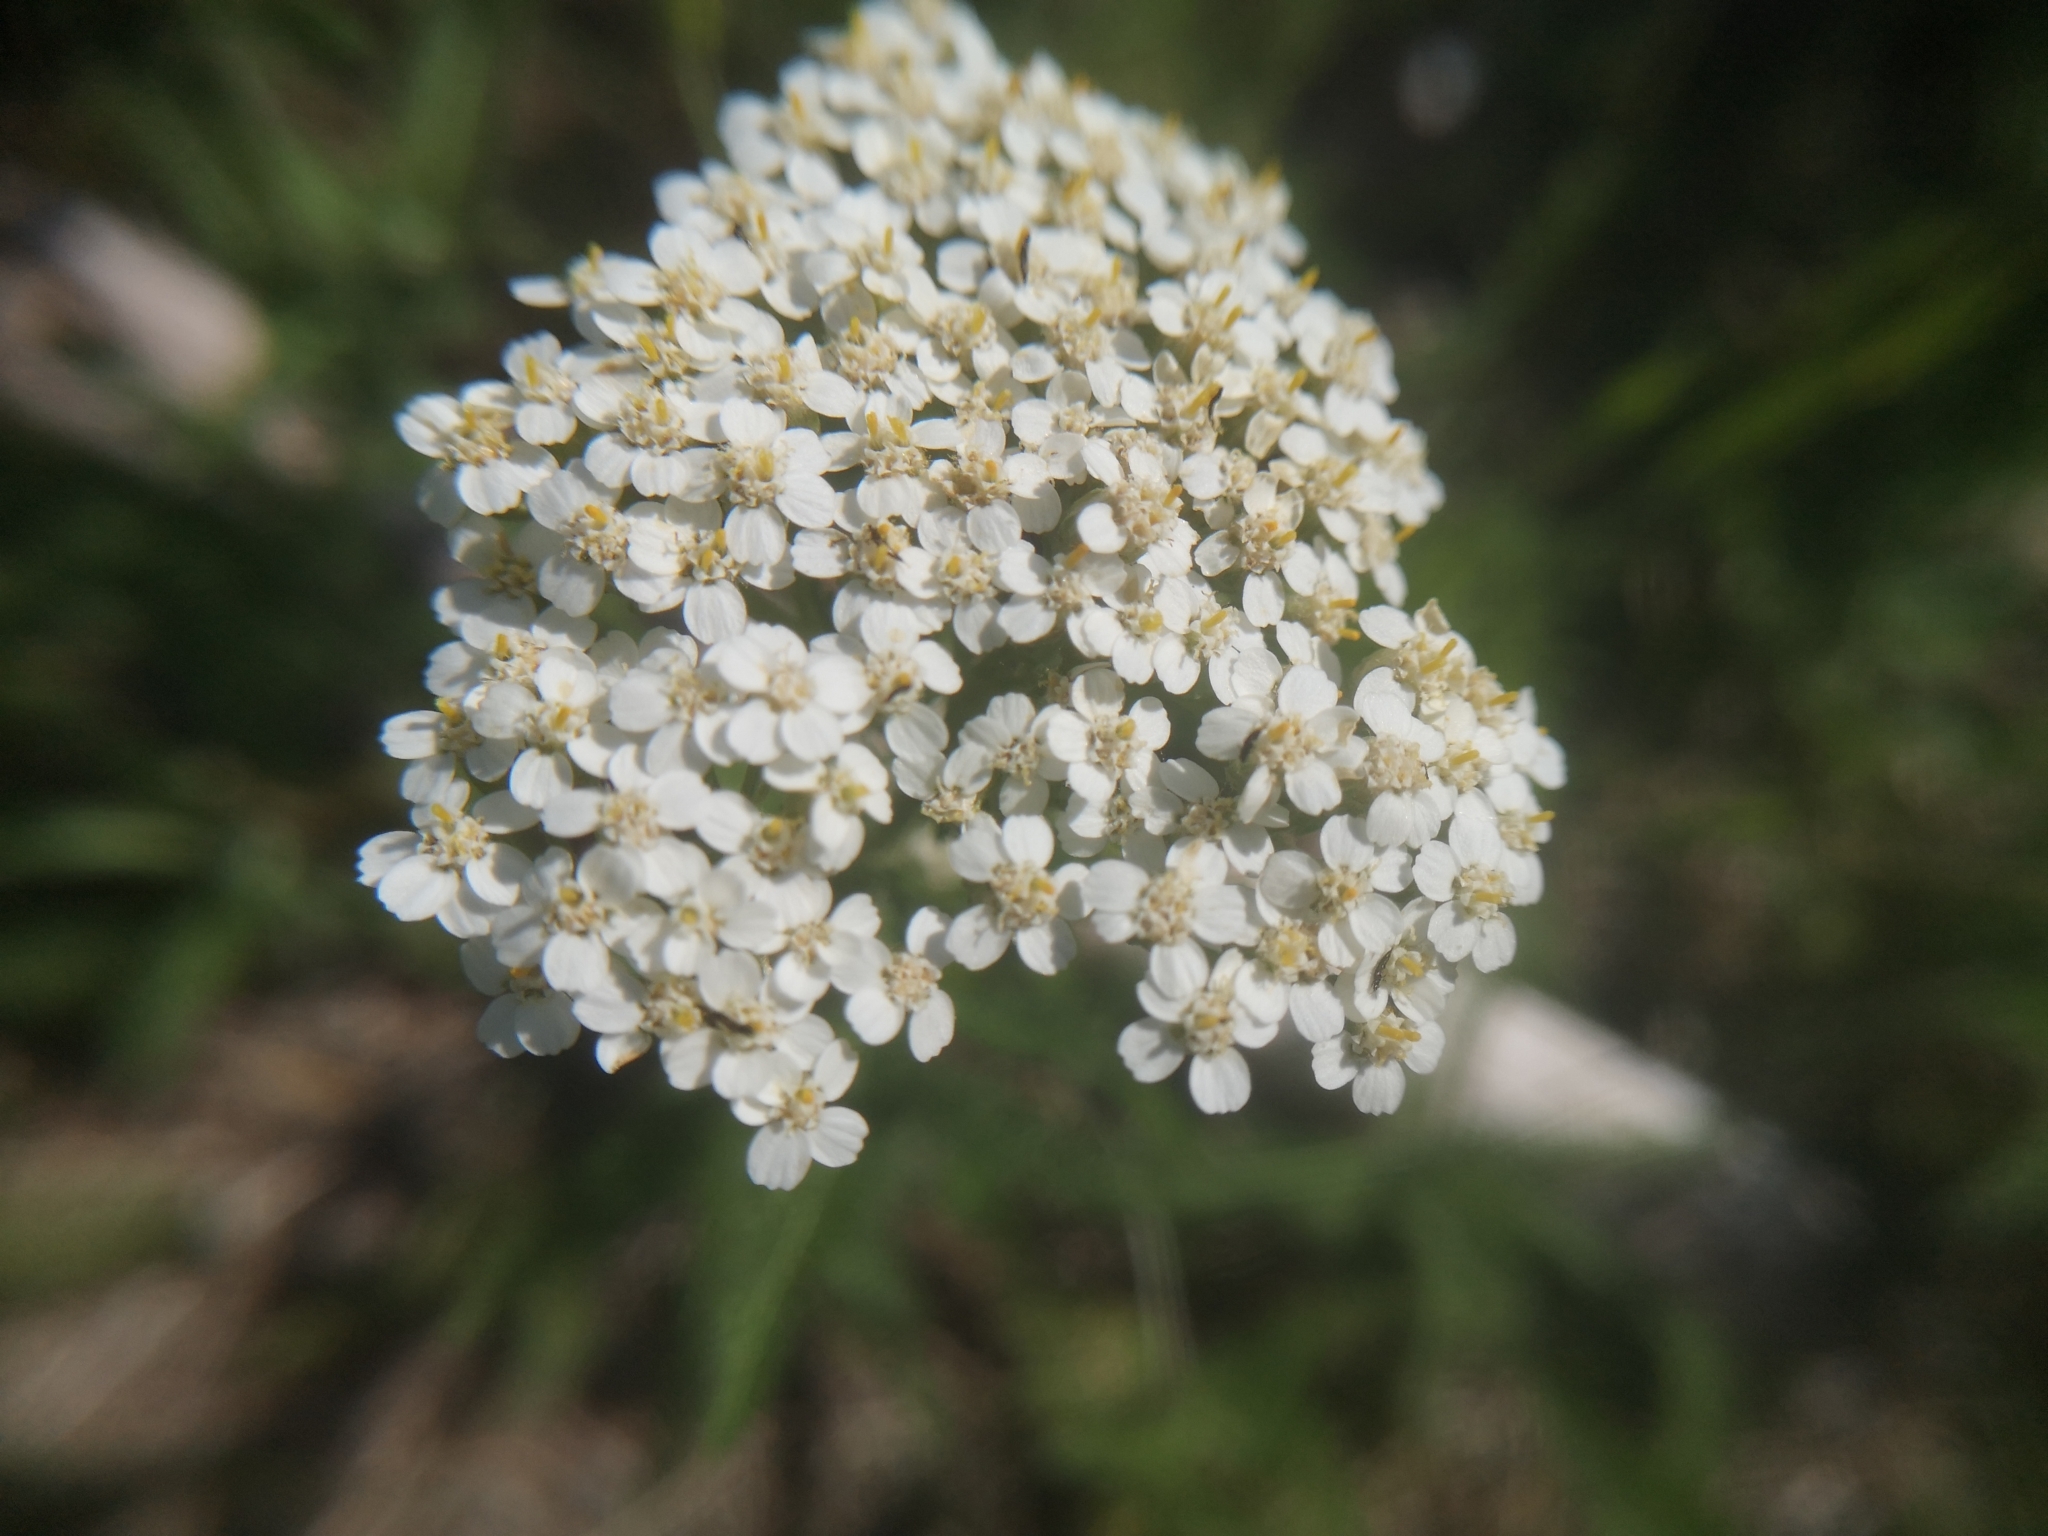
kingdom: Plantae
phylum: Tracheophyta
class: Magnoliopsida
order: Asterales
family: Asteraceae
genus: Achillea
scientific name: Achillea millefolium
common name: Yarrow
